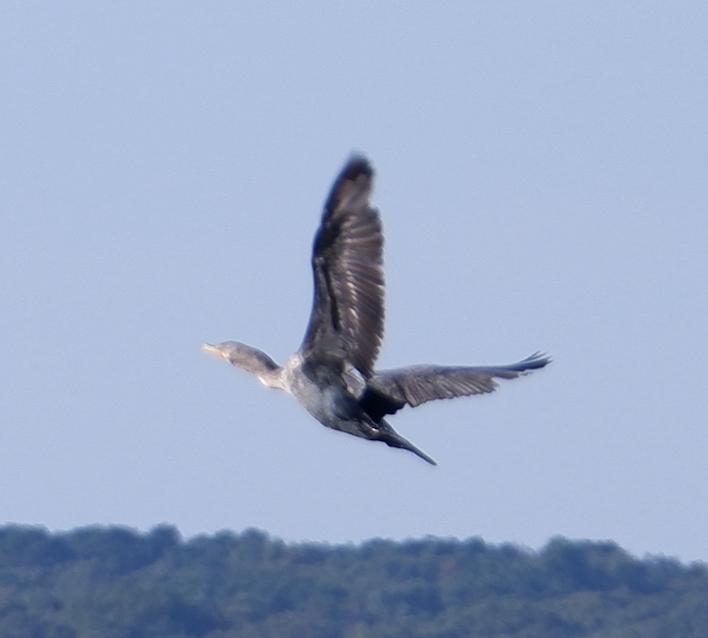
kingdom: Animalia
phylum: Chordata
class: Aves
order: Suliformes
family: Phalacrocoracidae
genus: Phalacrocorax
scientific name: Phalacrocorax auritus
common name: Double-crested cormorant
